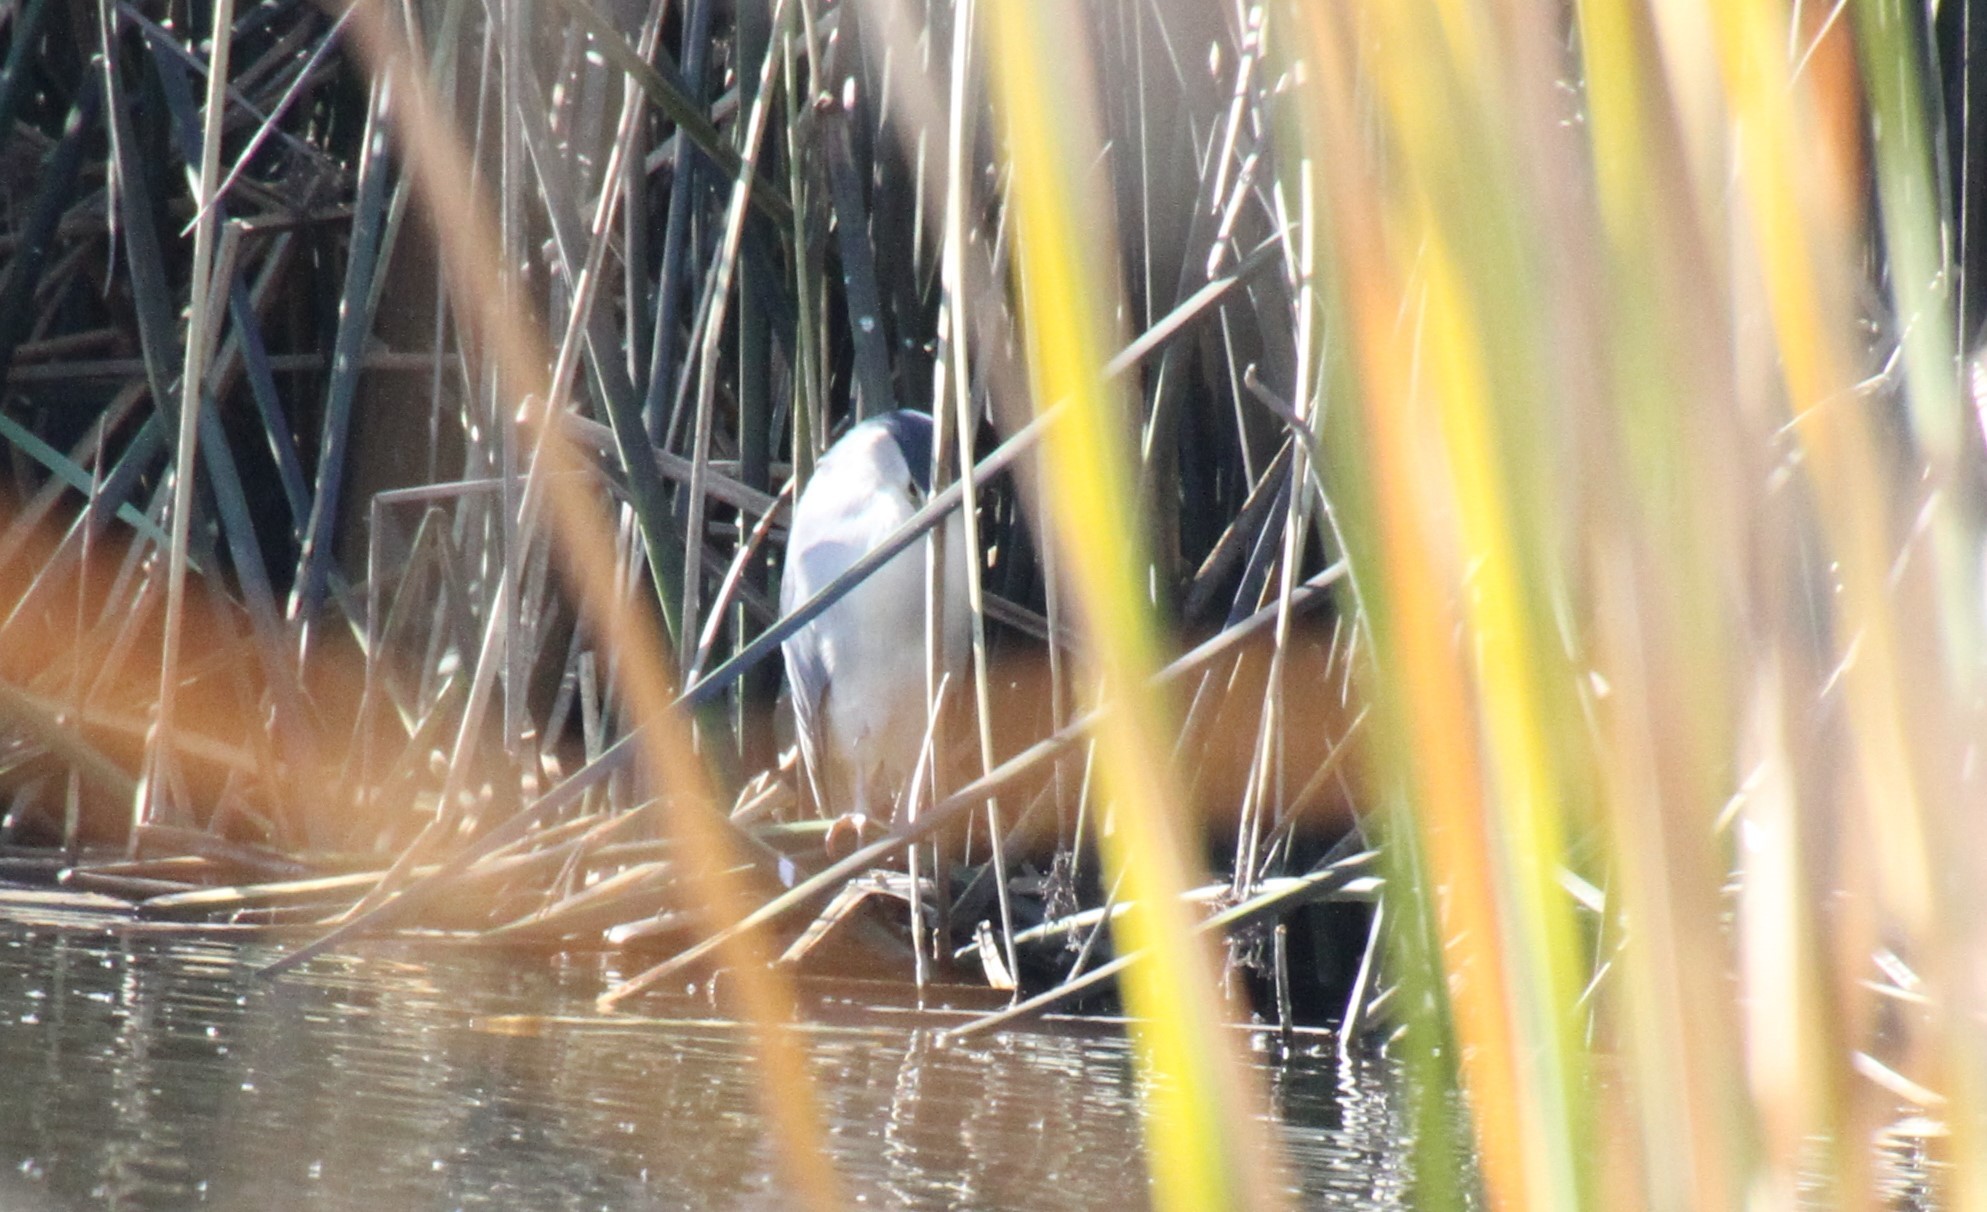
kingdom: Animalia
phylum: Chordata
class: Aves
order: Pelecaniformes
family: Ardeidae
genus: Nycticorax
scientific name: Nycticorax nycticorax
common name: Black-crowned night heron
